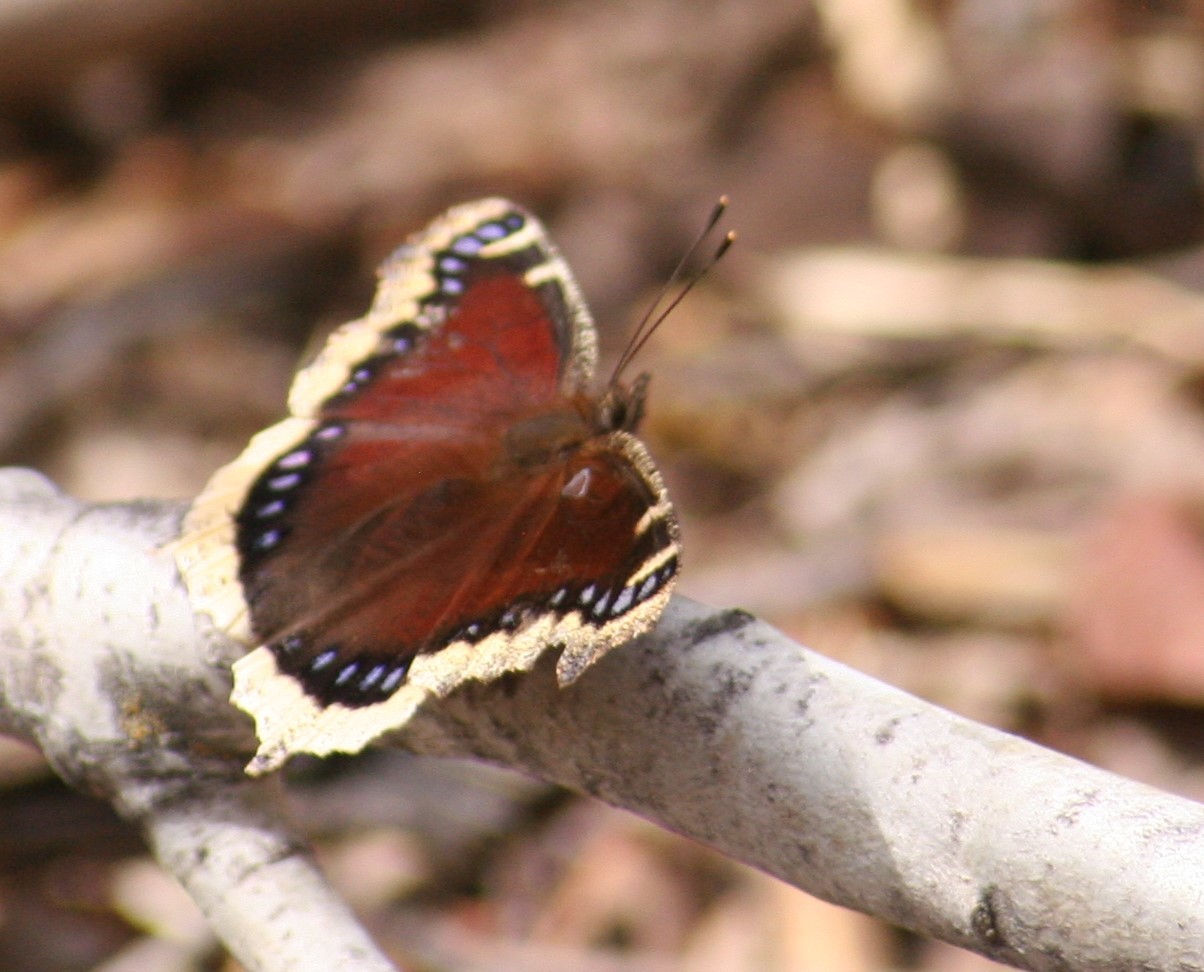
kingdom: Animalia
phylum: Arthropoda
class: Insecta
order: Lepidoptera
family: Nymphalidae
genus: Nymphalis
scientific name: Nymphalis antiopa
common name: Camberwell beauty
